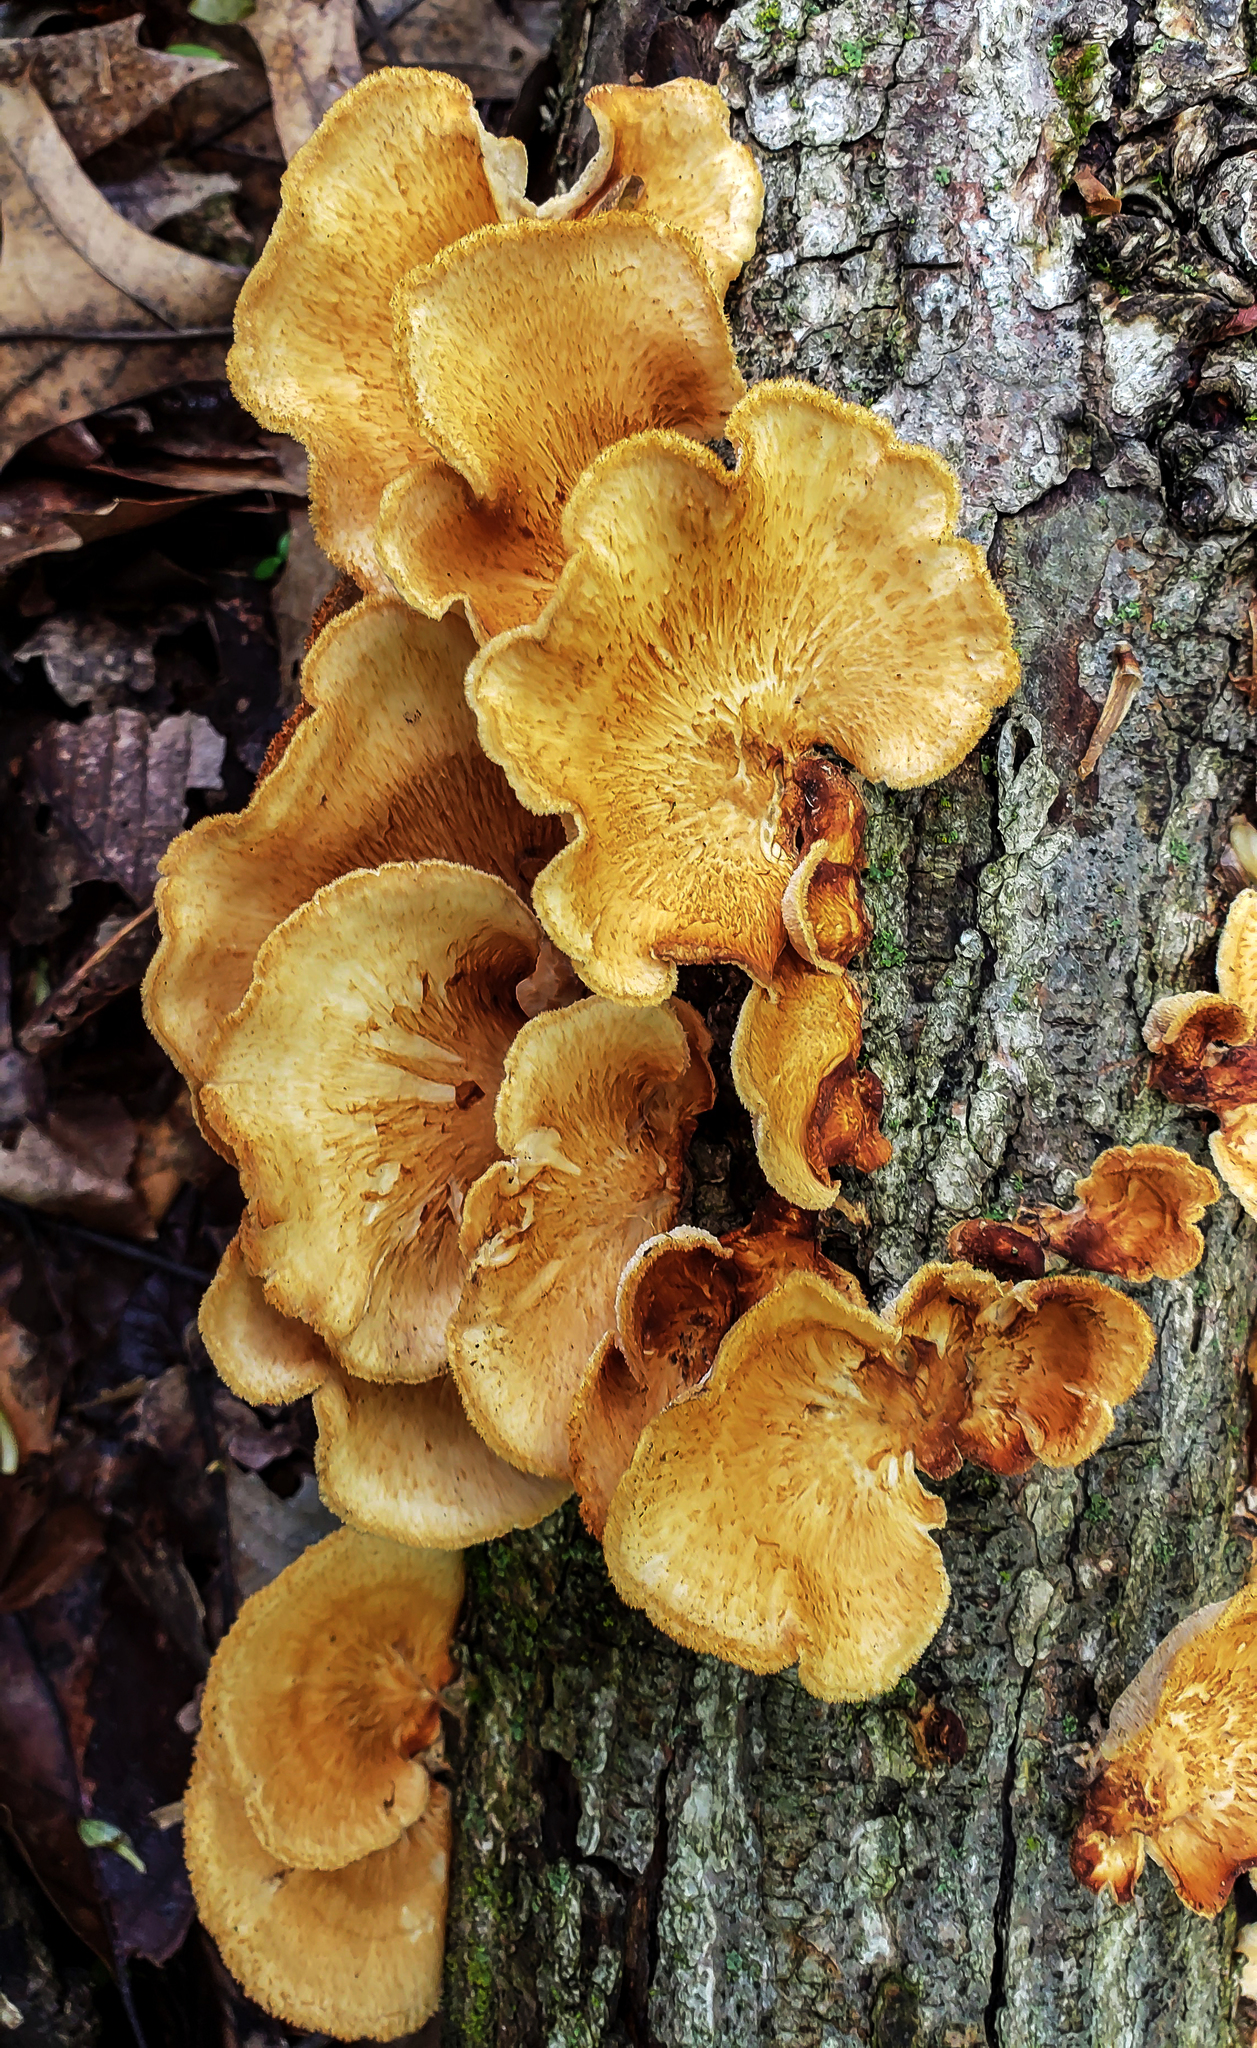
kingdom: Fungi
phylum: Basidiomycota
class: Agaricomycetes
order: Polyporales
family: Polyporaceae
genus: Neofavolus
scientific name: Neofavolus alveolaris
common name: Hexagonal-pored polypore
